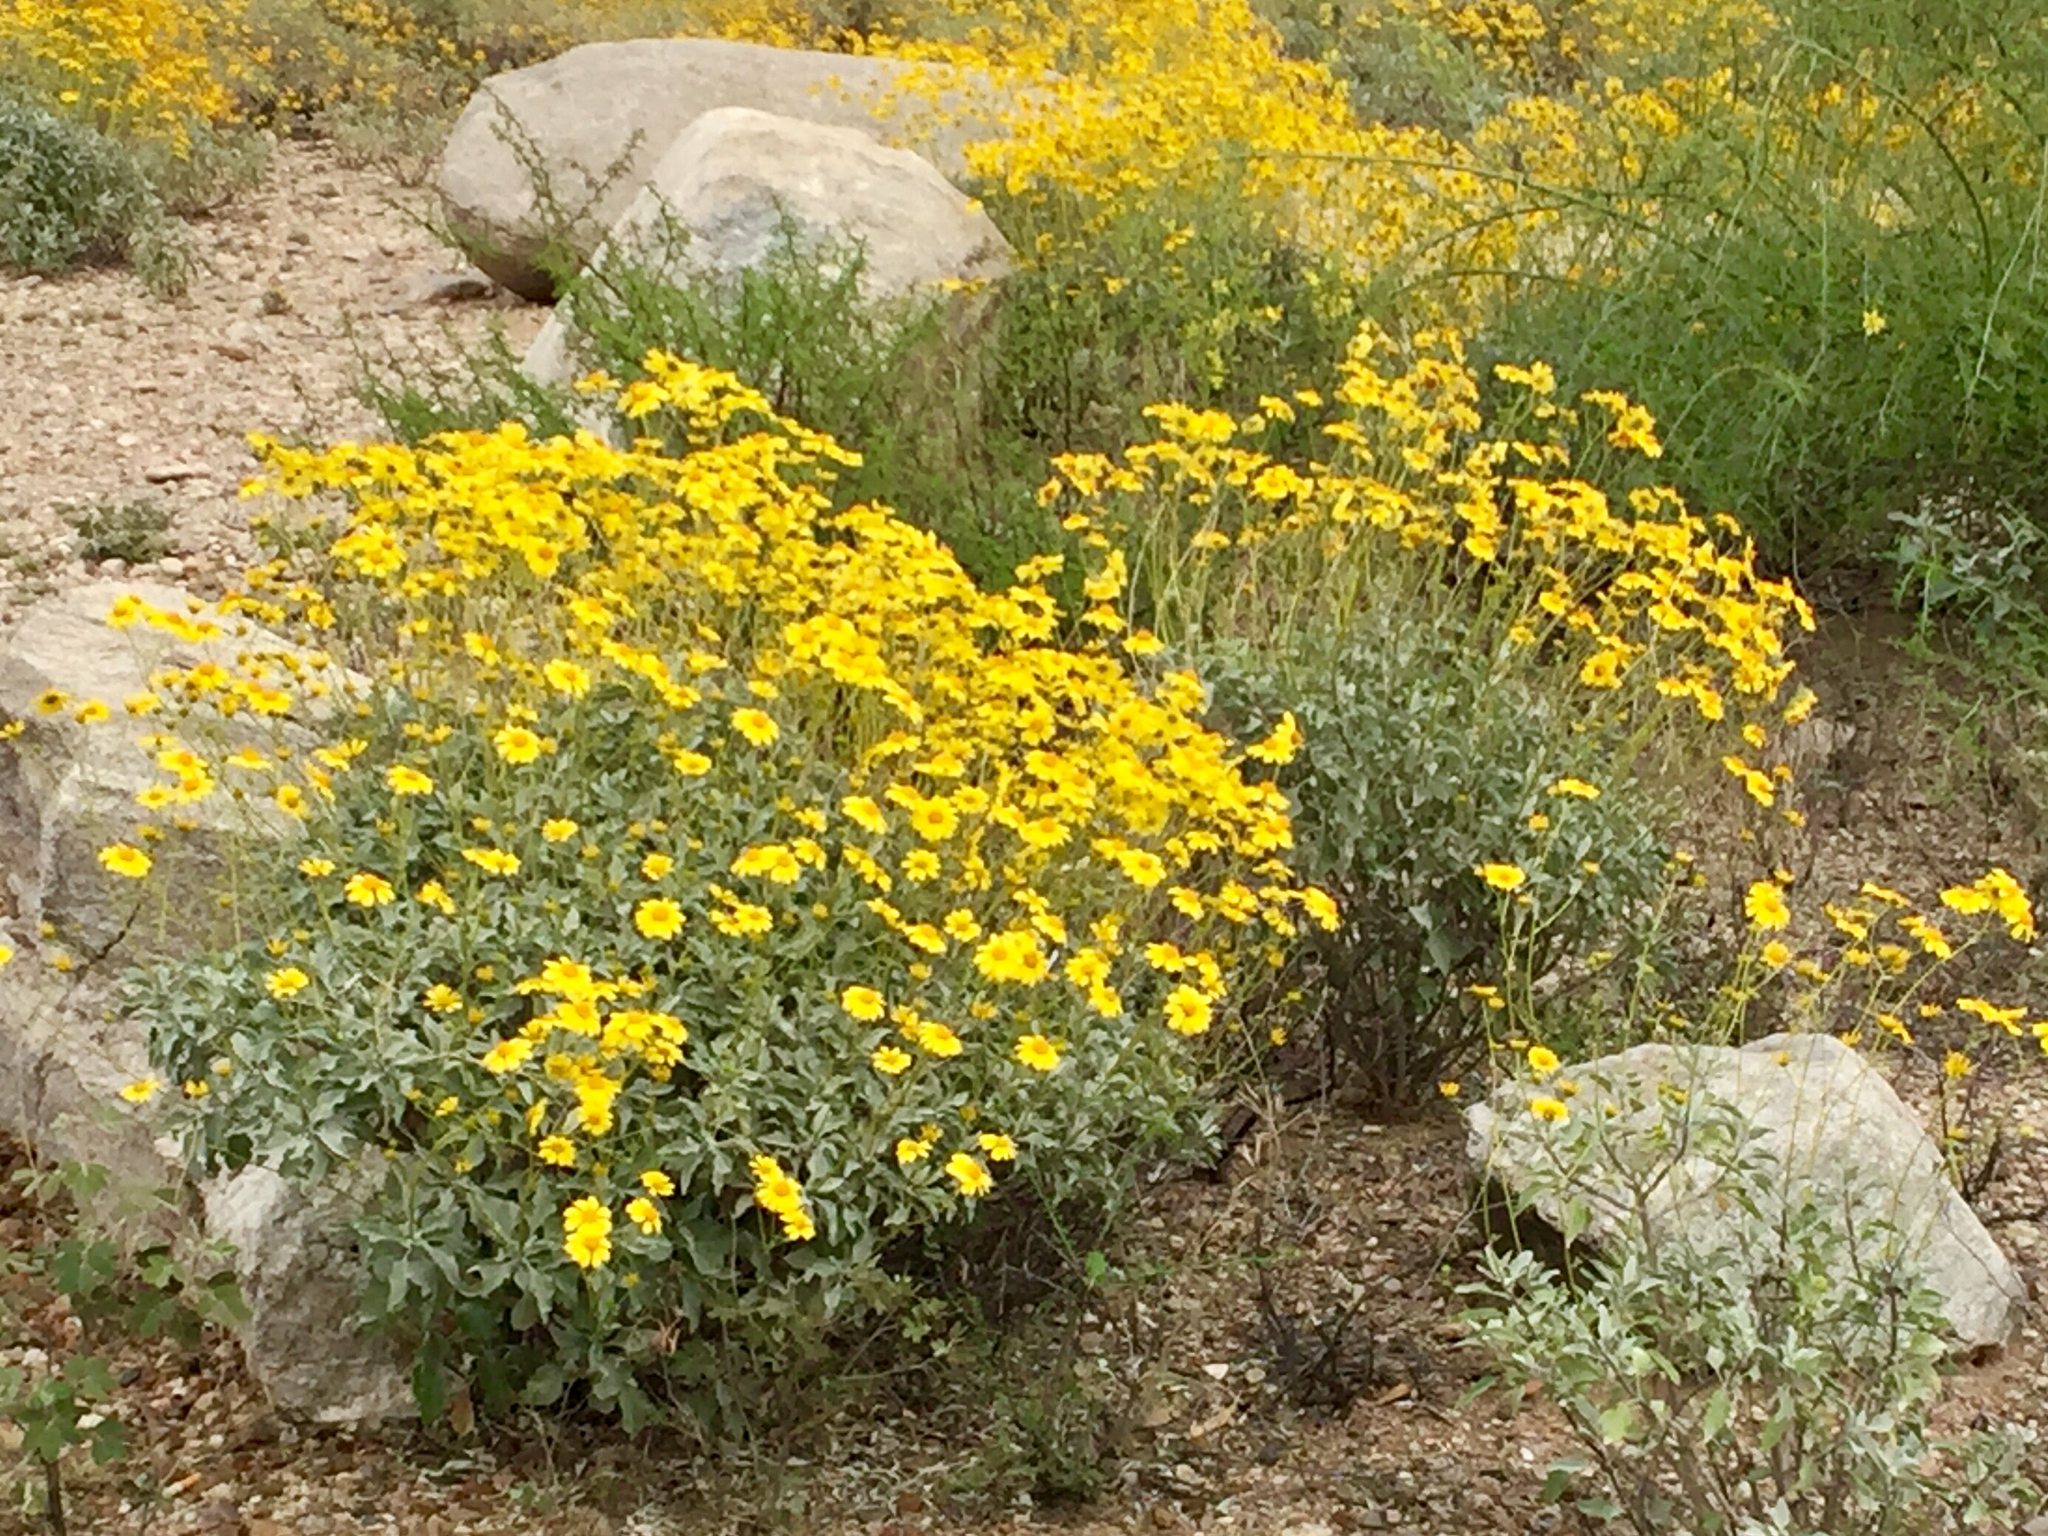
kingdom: Plantae
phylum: Tracheophyta
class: Magnoliopsida
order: Asterales
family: Asteraceae
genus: Encelia
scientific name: Encelia farinosa
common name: Brittlebush
